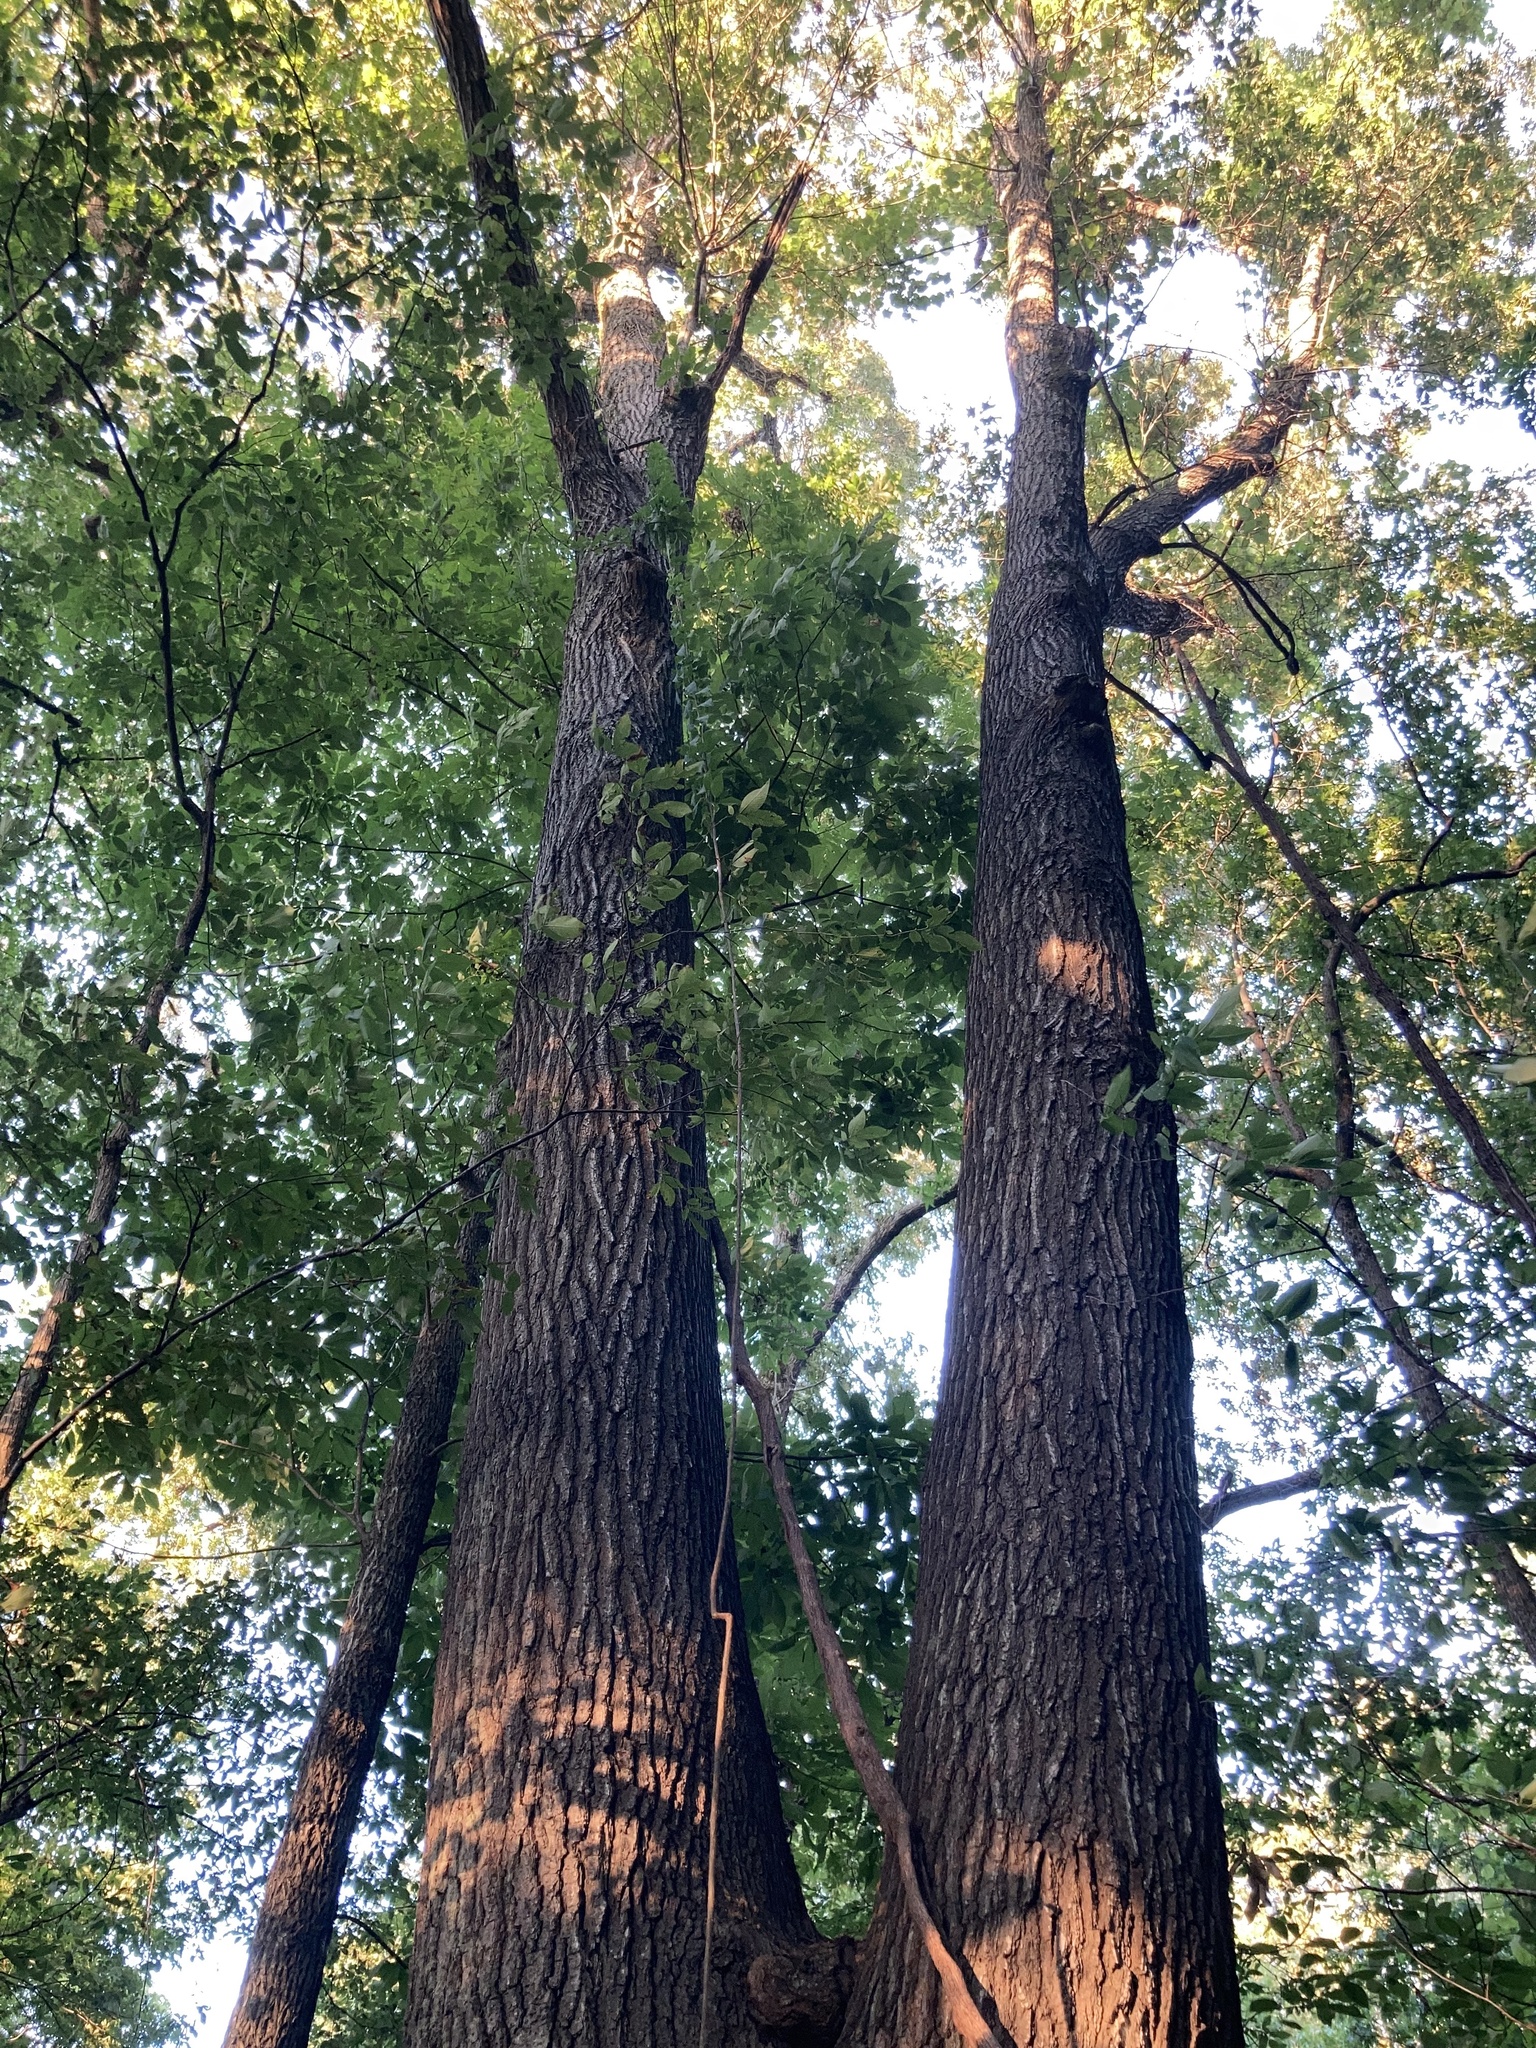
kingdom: Plantae
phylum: Tracheophyta
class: Magnoliopsida
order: Magnoliales
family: Magnoliaceae
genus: Liriodendron
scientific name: Liriodendron tulipifera
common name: Tulip tree
